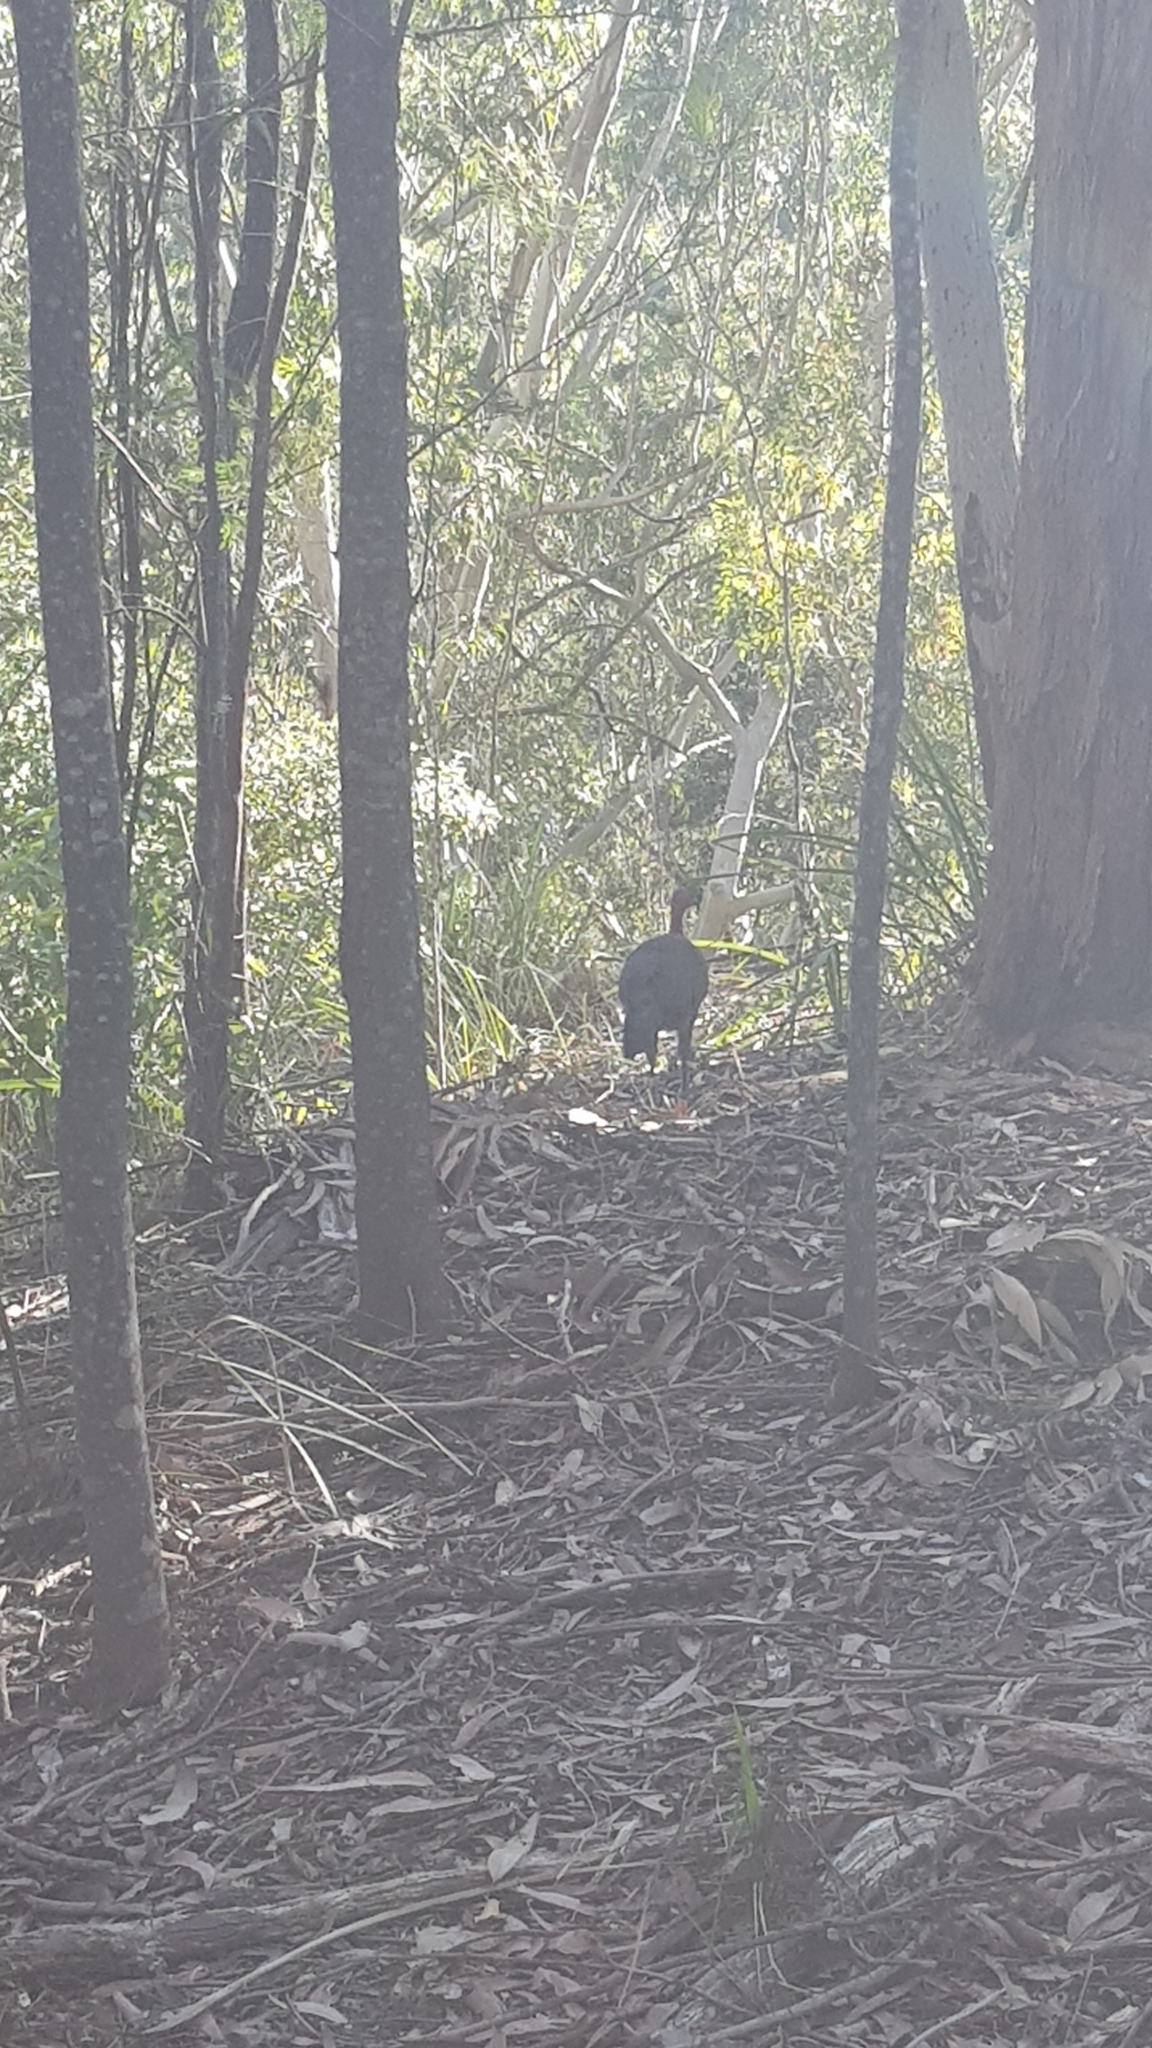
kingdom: Animalia
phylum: Chordata
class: Aves
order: Galliformes
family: Megapodiidae
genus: Alectura
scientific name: Alectura lathami
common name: Australian brushturkey
